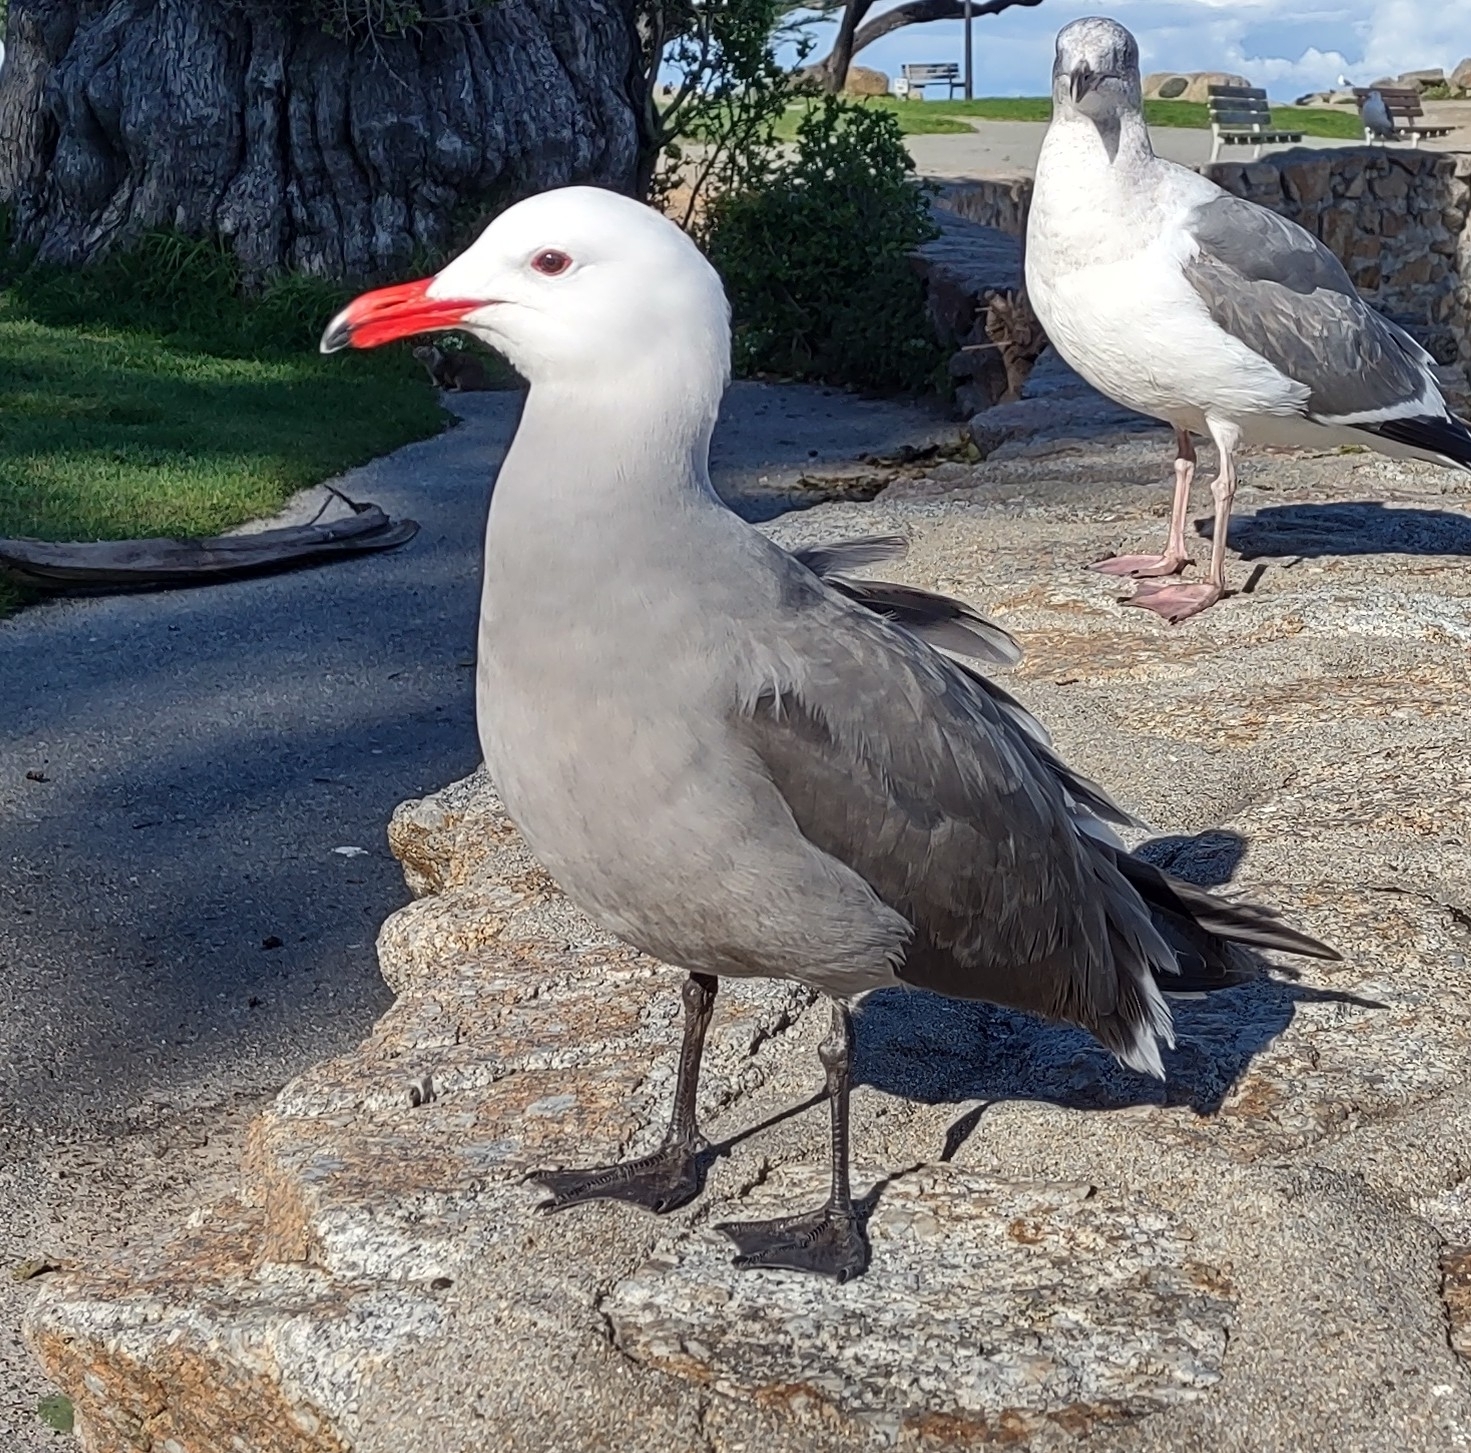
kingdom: Animalia
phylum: Chordata
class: Aves
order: Charadriiformes
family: Laridae
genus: Larus
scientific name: Larus heermanni
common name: Heermann's gull
